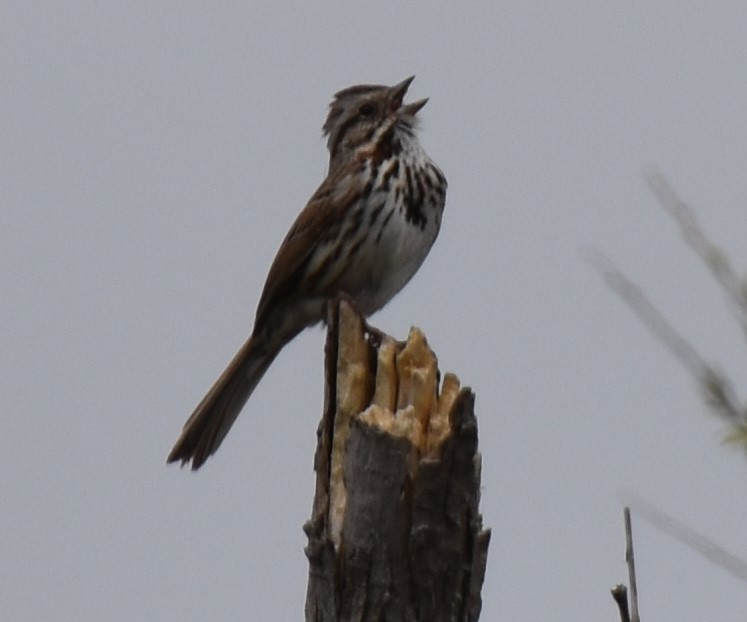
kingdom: Animalia
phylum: Chordata
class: Aves
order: Passeriformes
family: Passerellidae
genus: Melospiza
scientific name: Melospiza melodia
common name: Song sparrow
